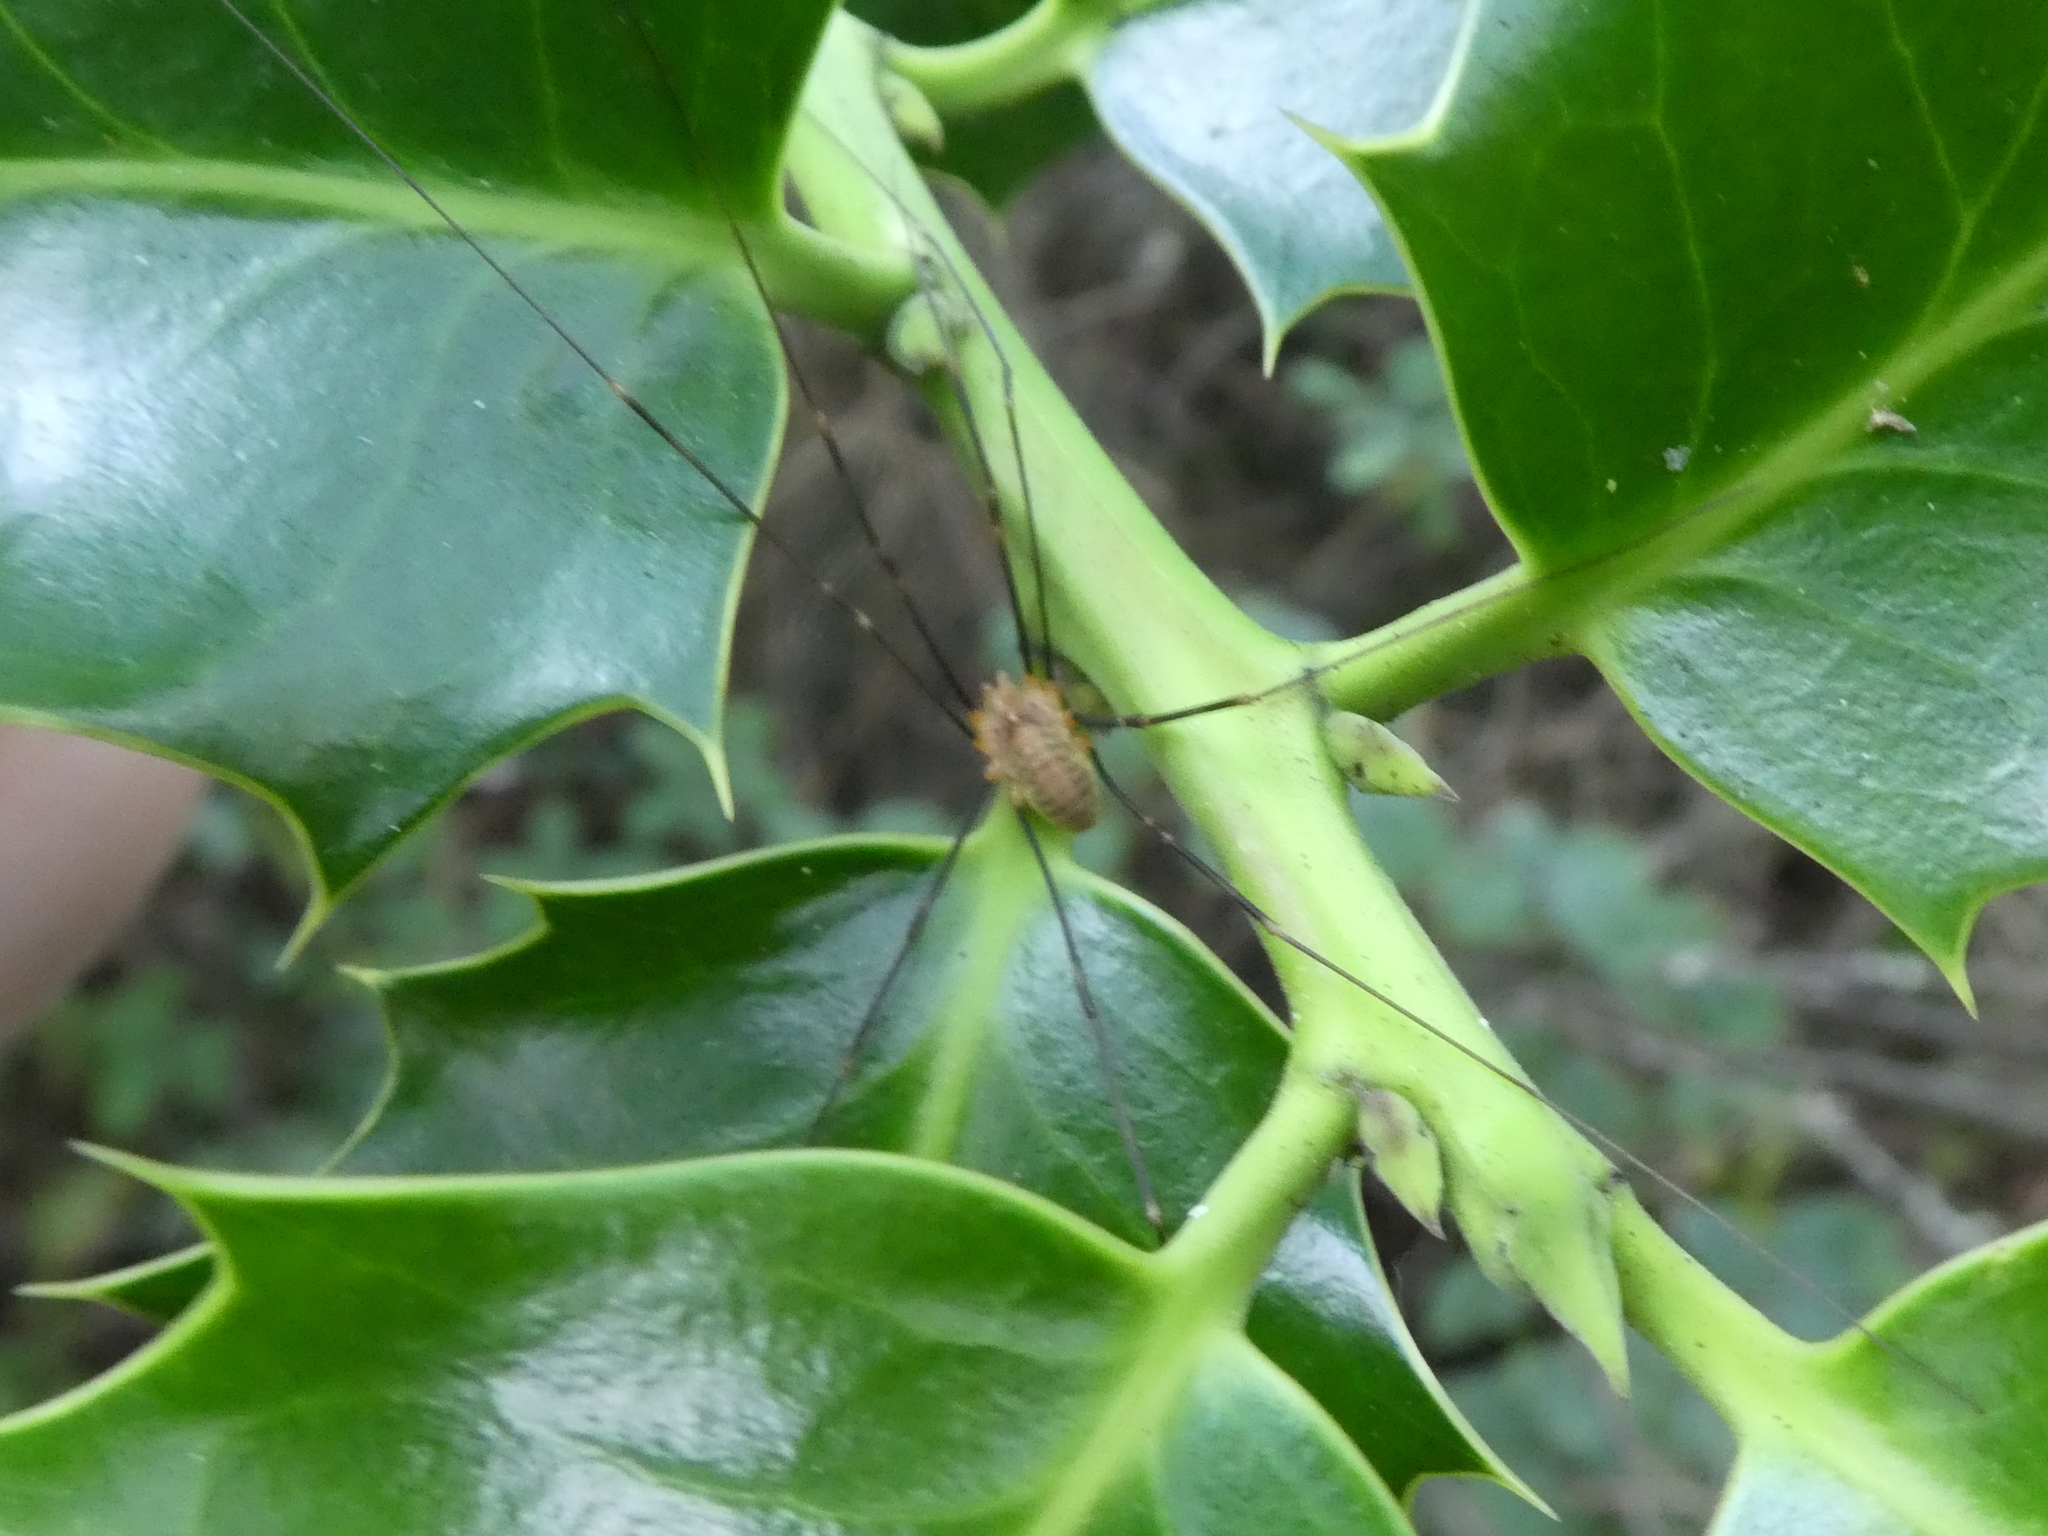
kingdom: Animalia
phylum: Arthropoda
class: Arachnida
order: Opiliones
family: Phalangiidae
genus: Opilio
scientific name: Opilio canestrinii
